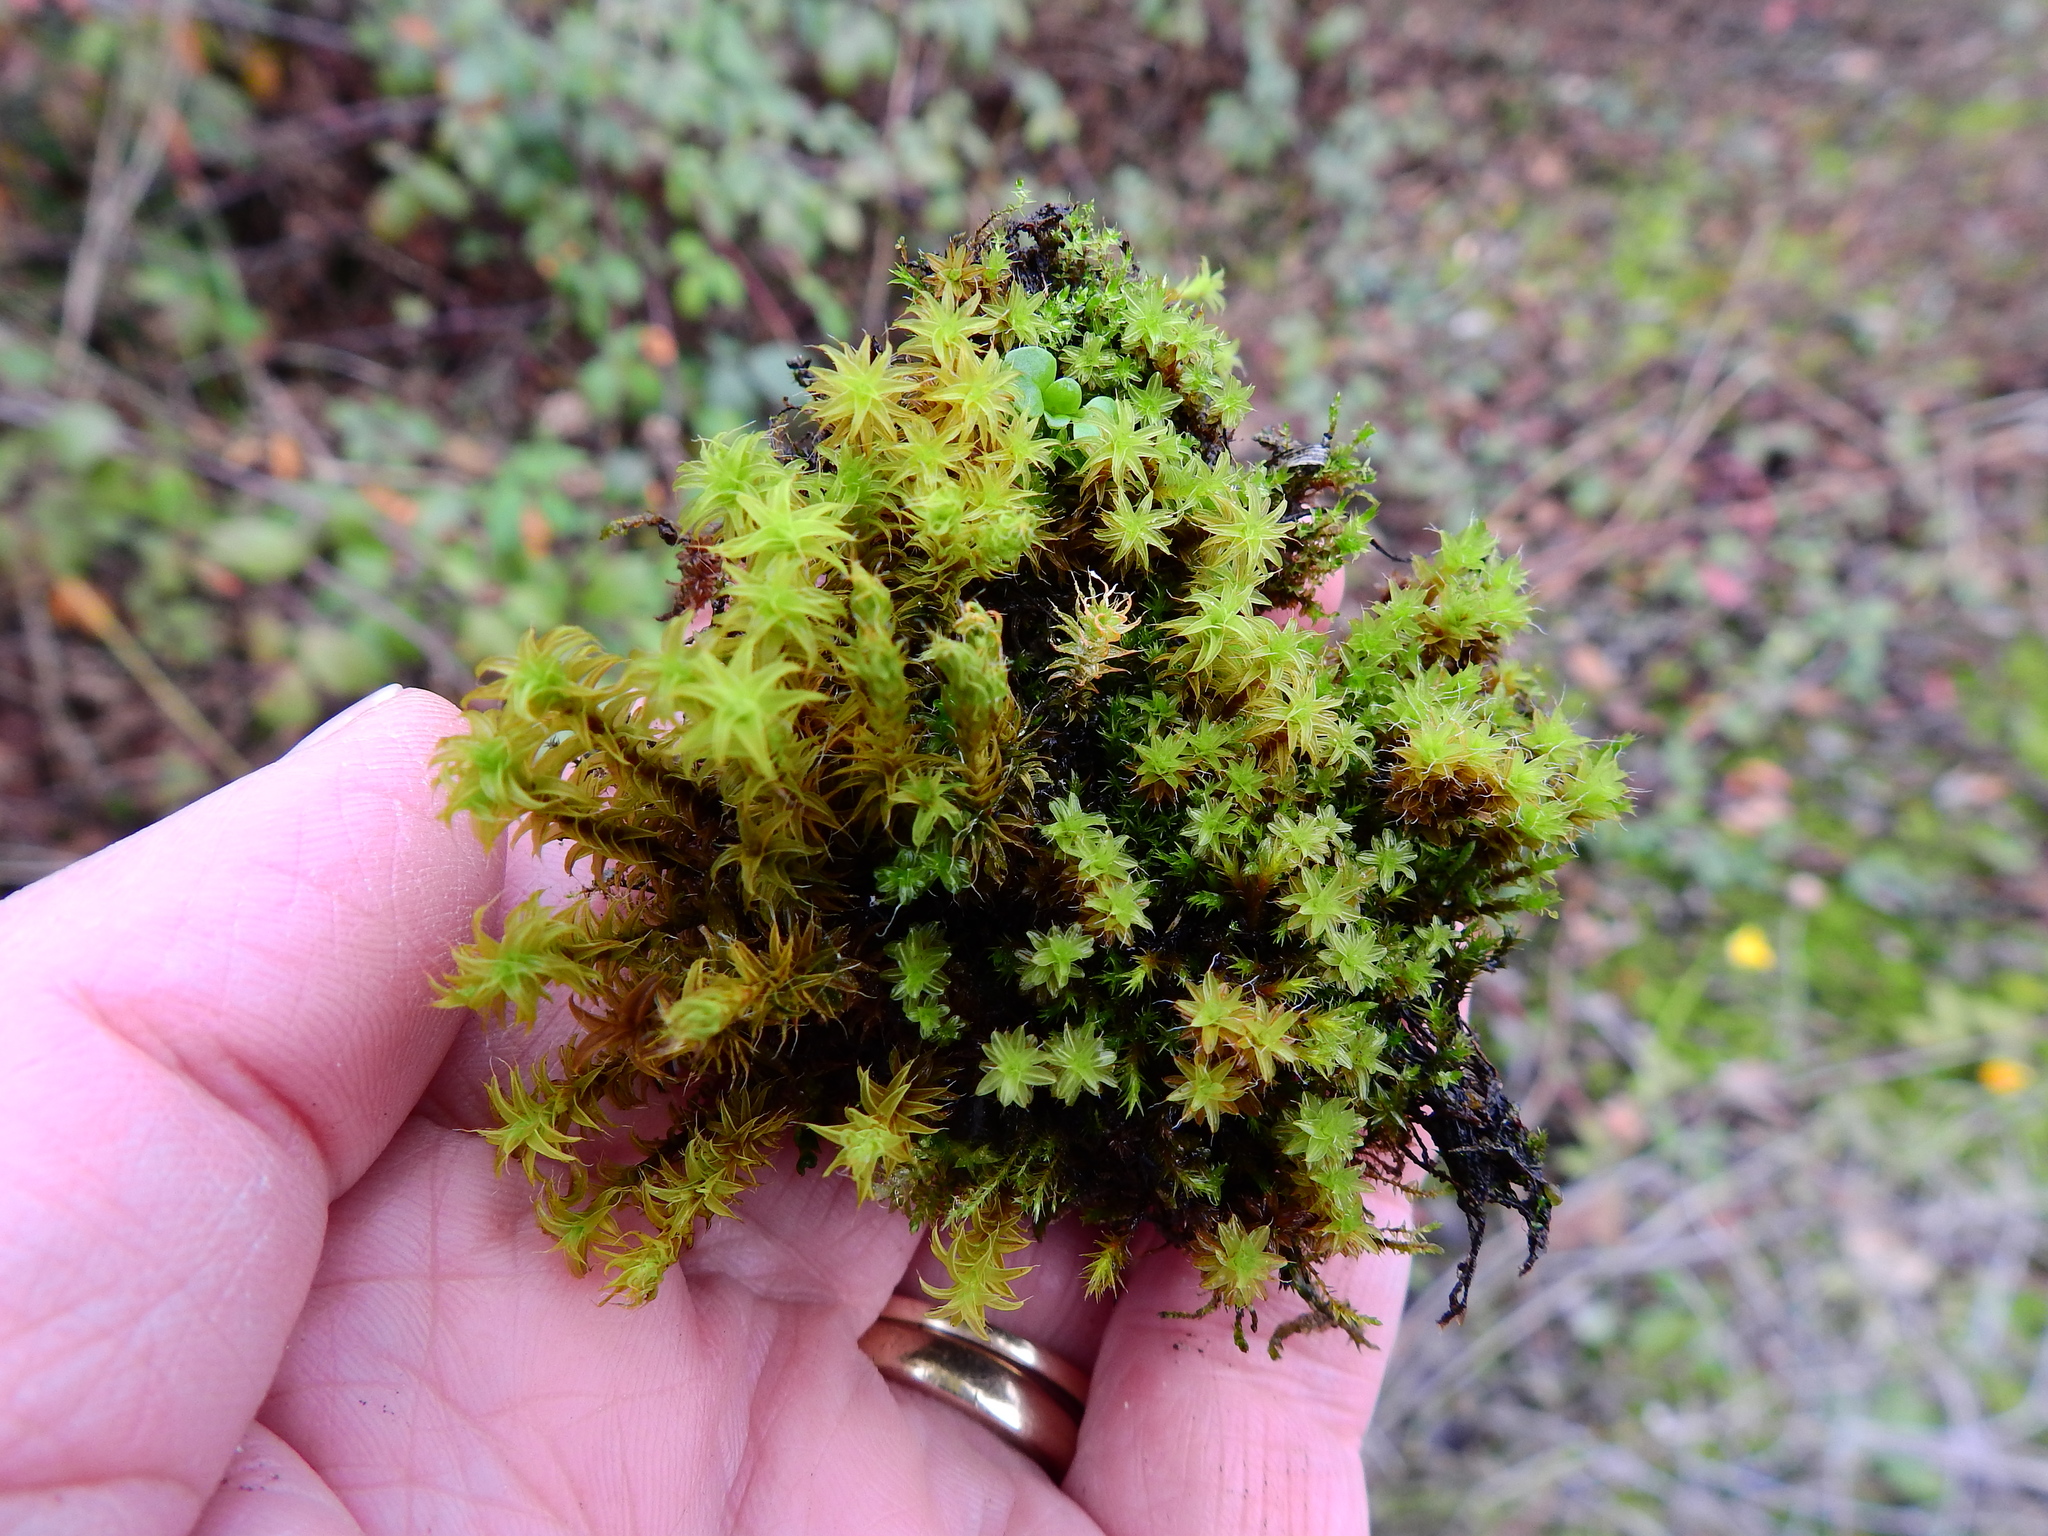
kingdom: Plantae
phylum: Bryophyta
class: Bryopsida
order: Pottiales
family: Pottiaceae
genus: Syntrichia
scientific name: Syntrichia ruralis
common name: Sidewalk screw moss
